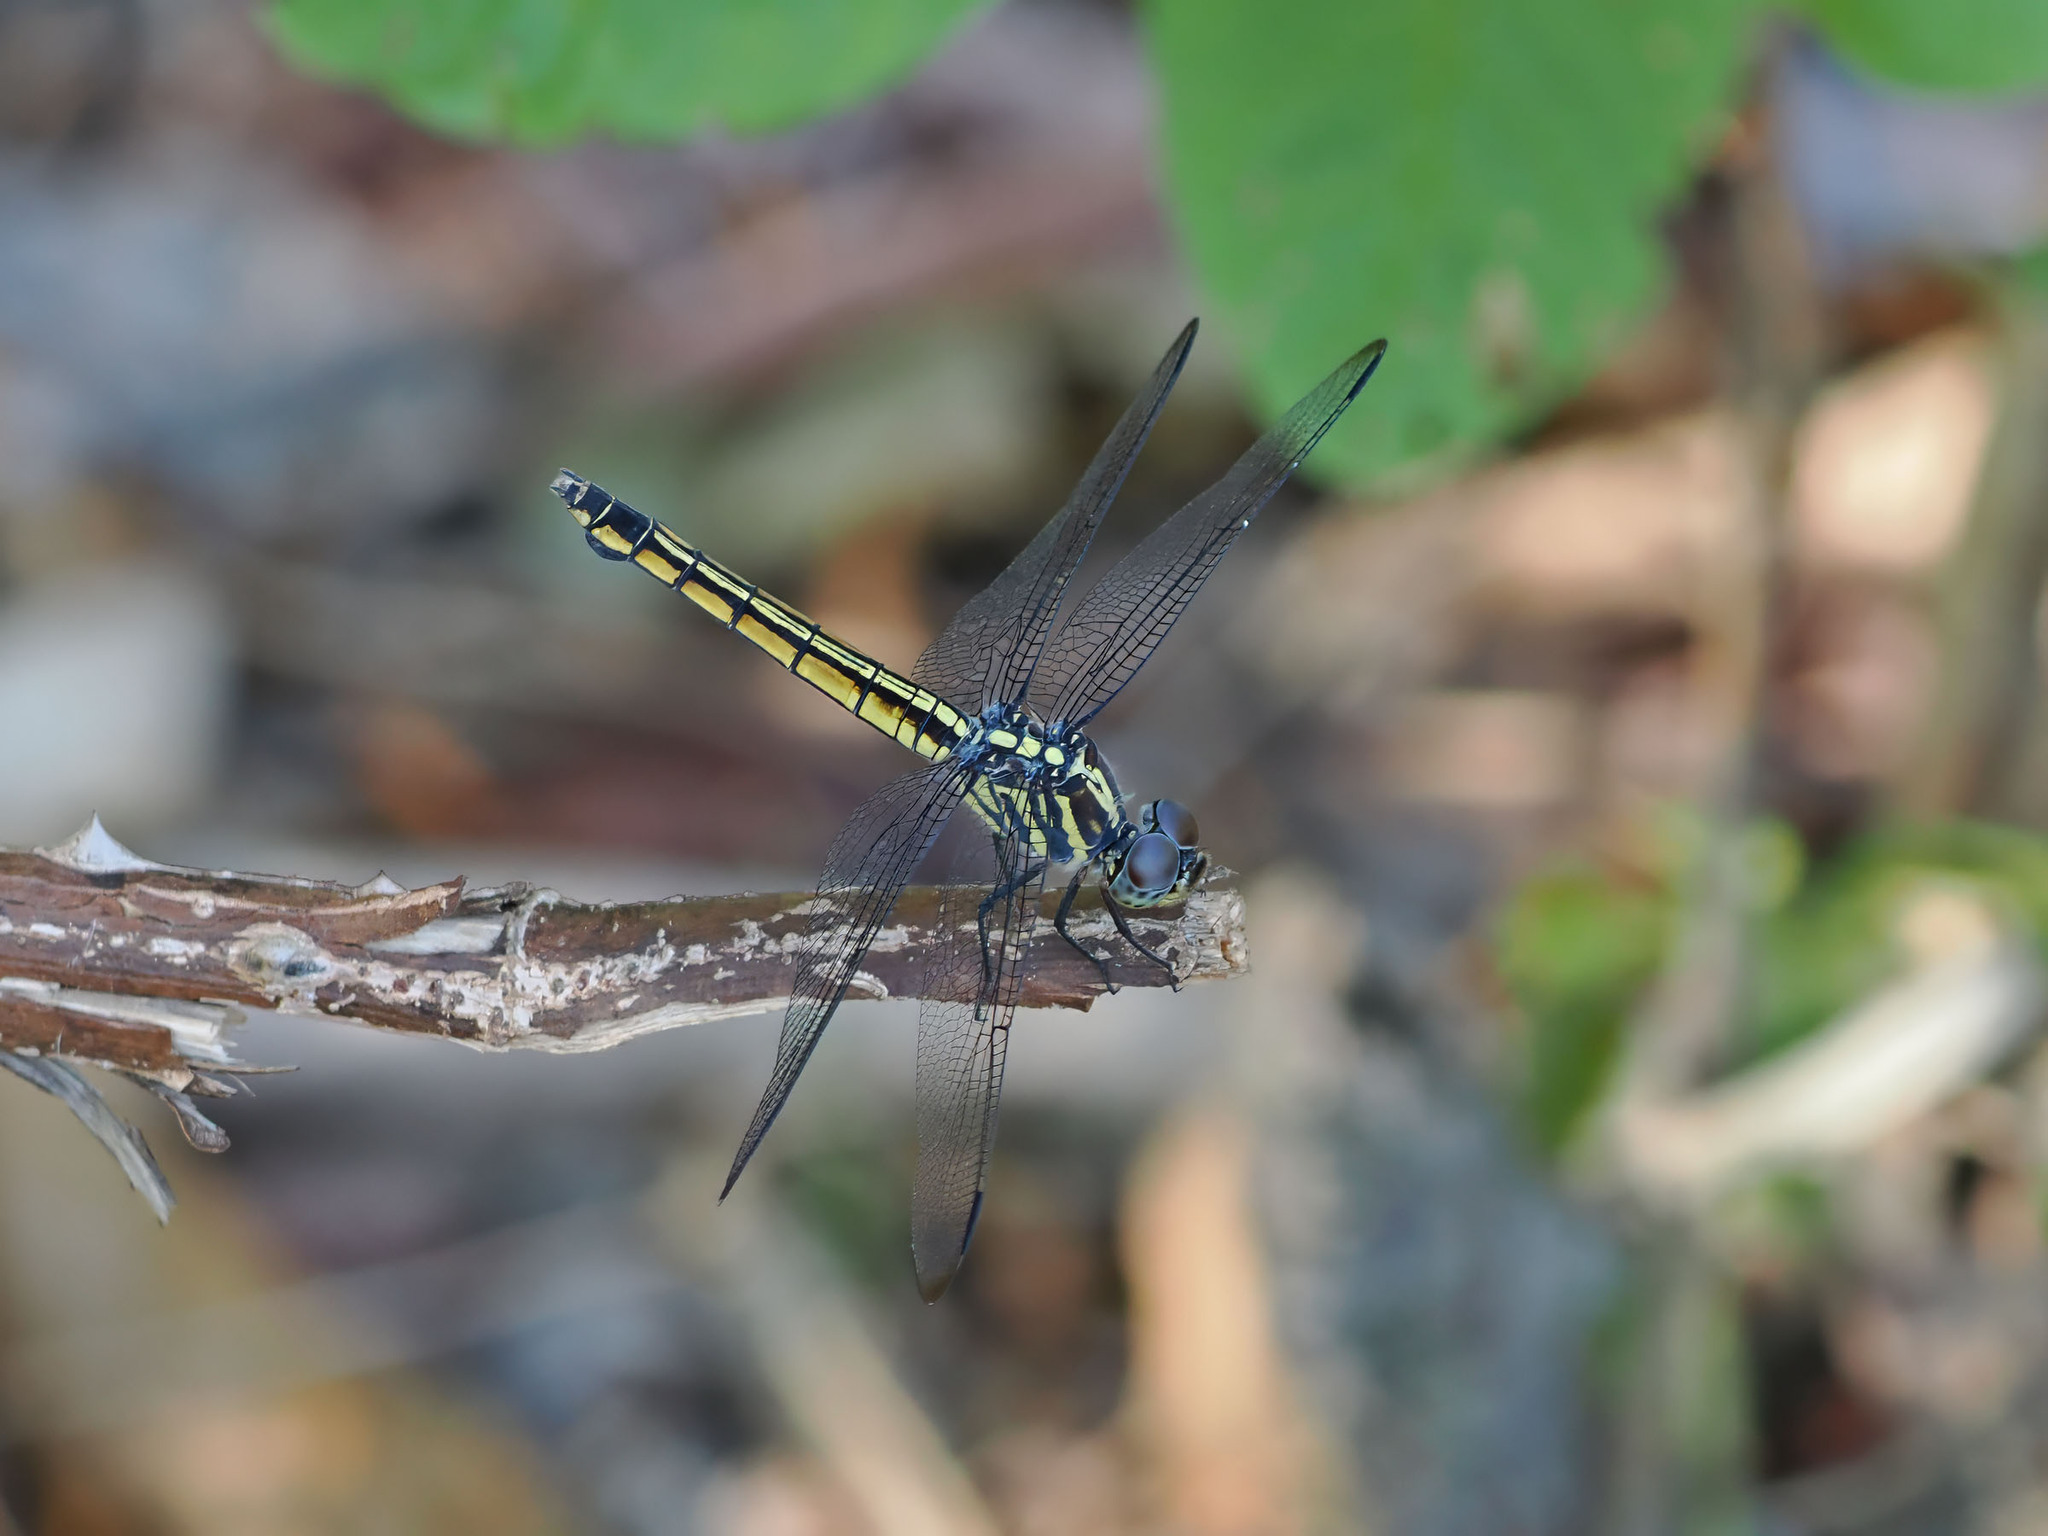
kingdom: Animalia
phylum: Arthropoda
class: Insecta
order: Odonata
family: Libellulidae
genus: Potamarcha
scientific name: Potamarcha congener
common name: Blue chaser
